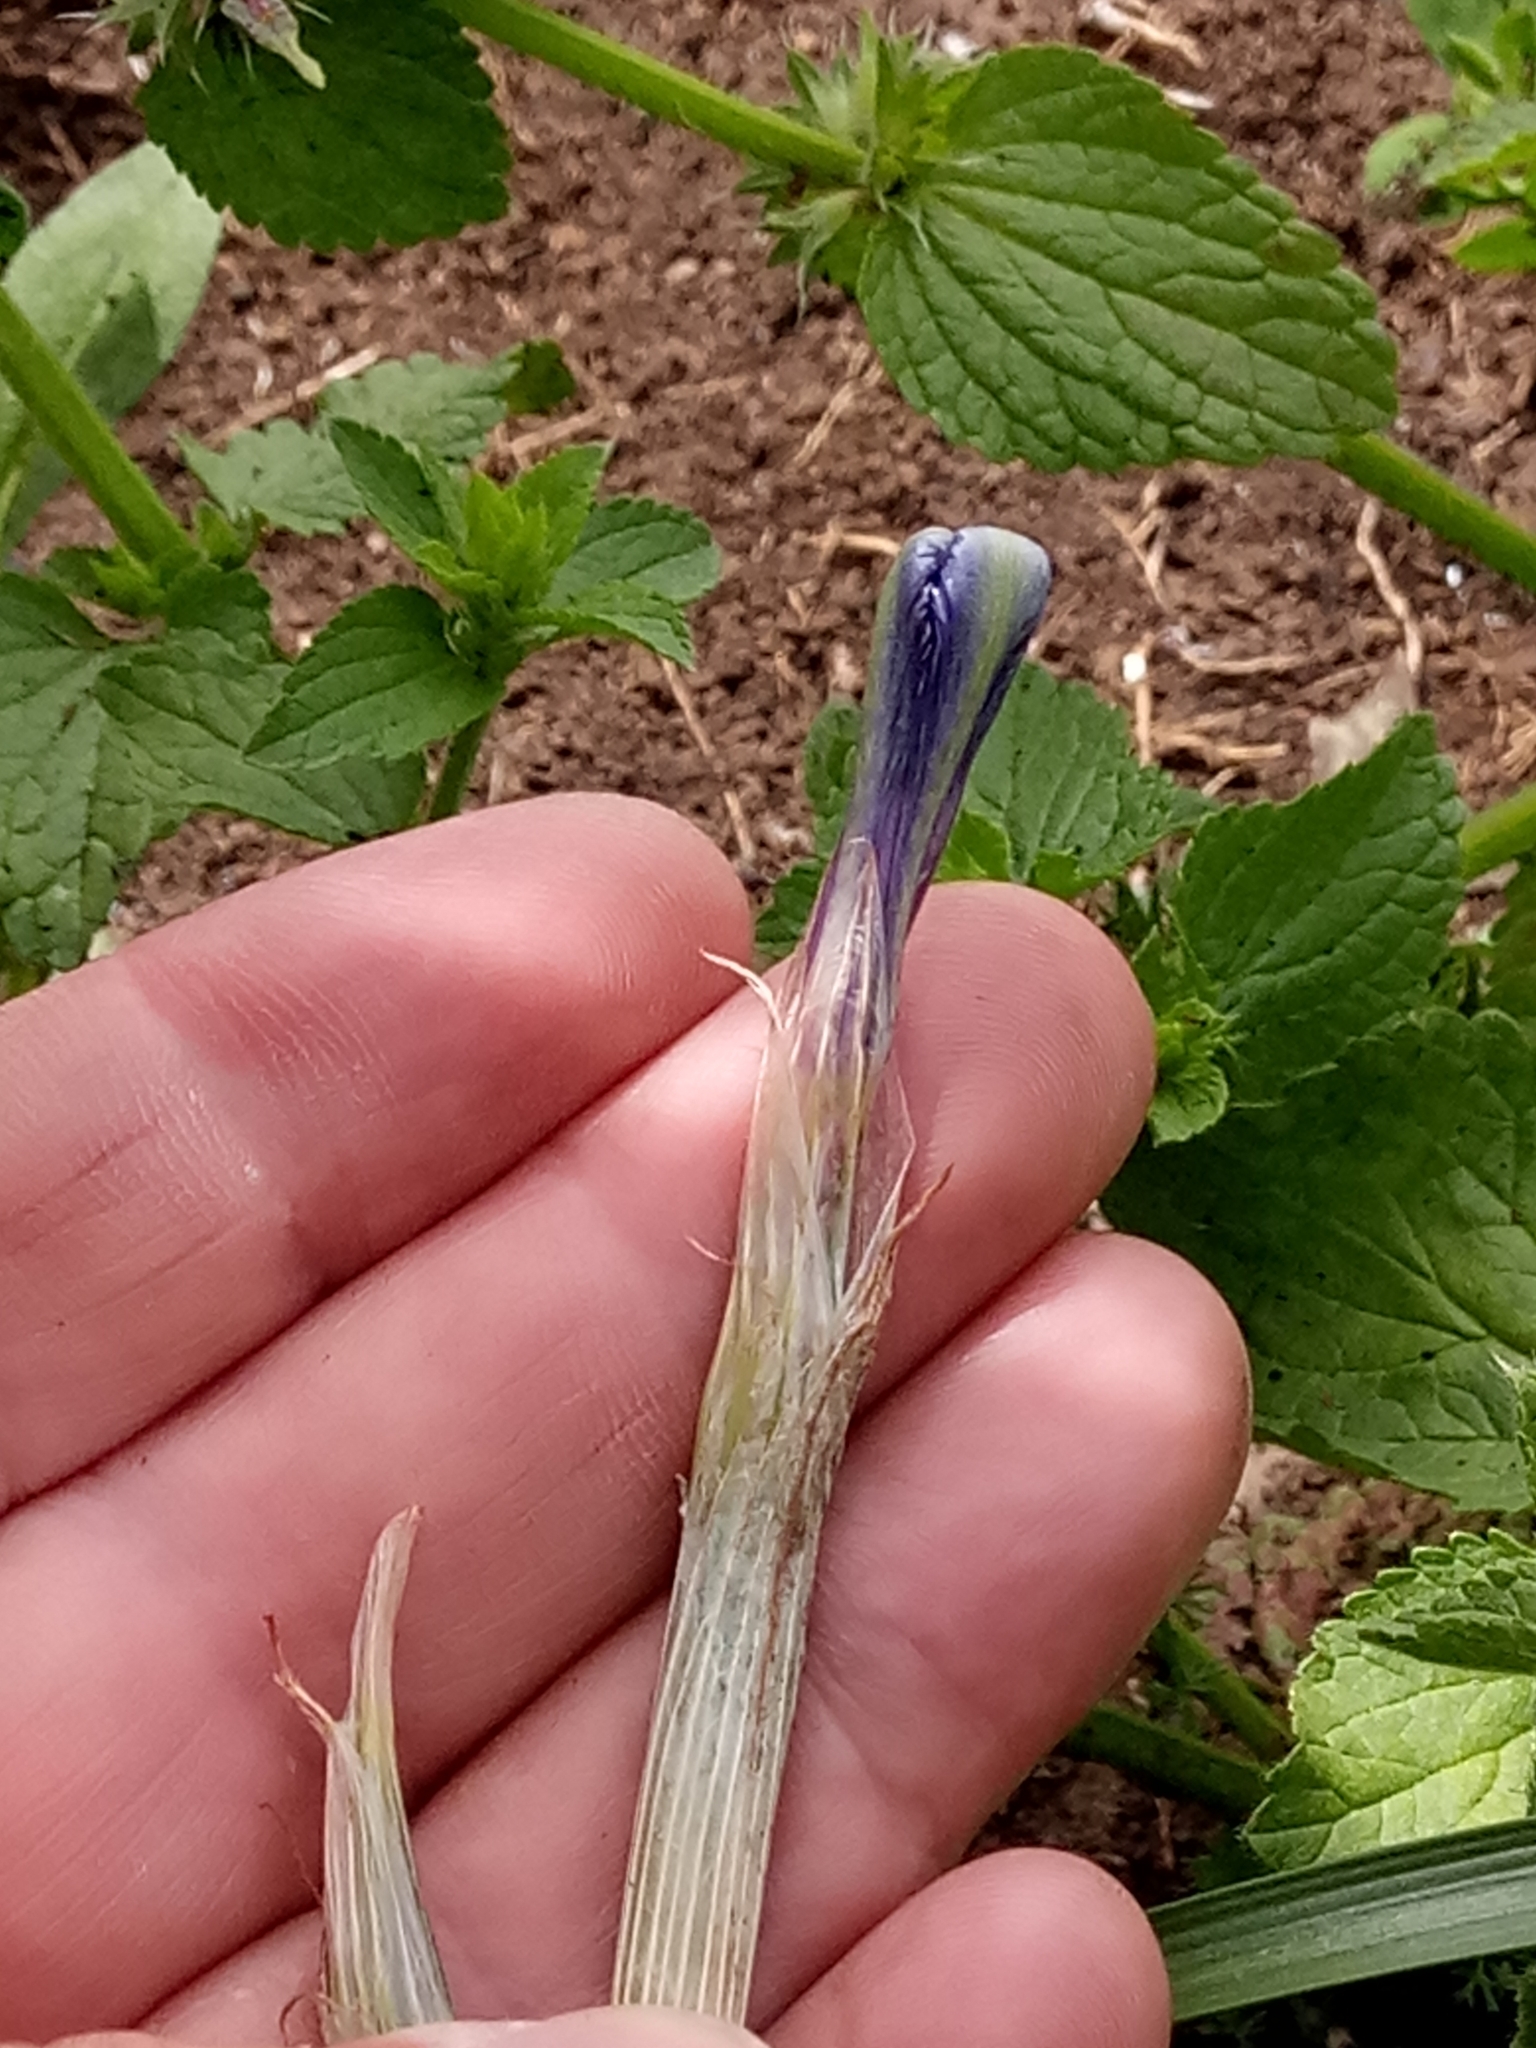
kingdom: Plantae
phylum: Tracheophyta
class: Liliopsida
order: Asparagales
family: Iridaceae
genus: Iris
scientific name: Iris planifolia
